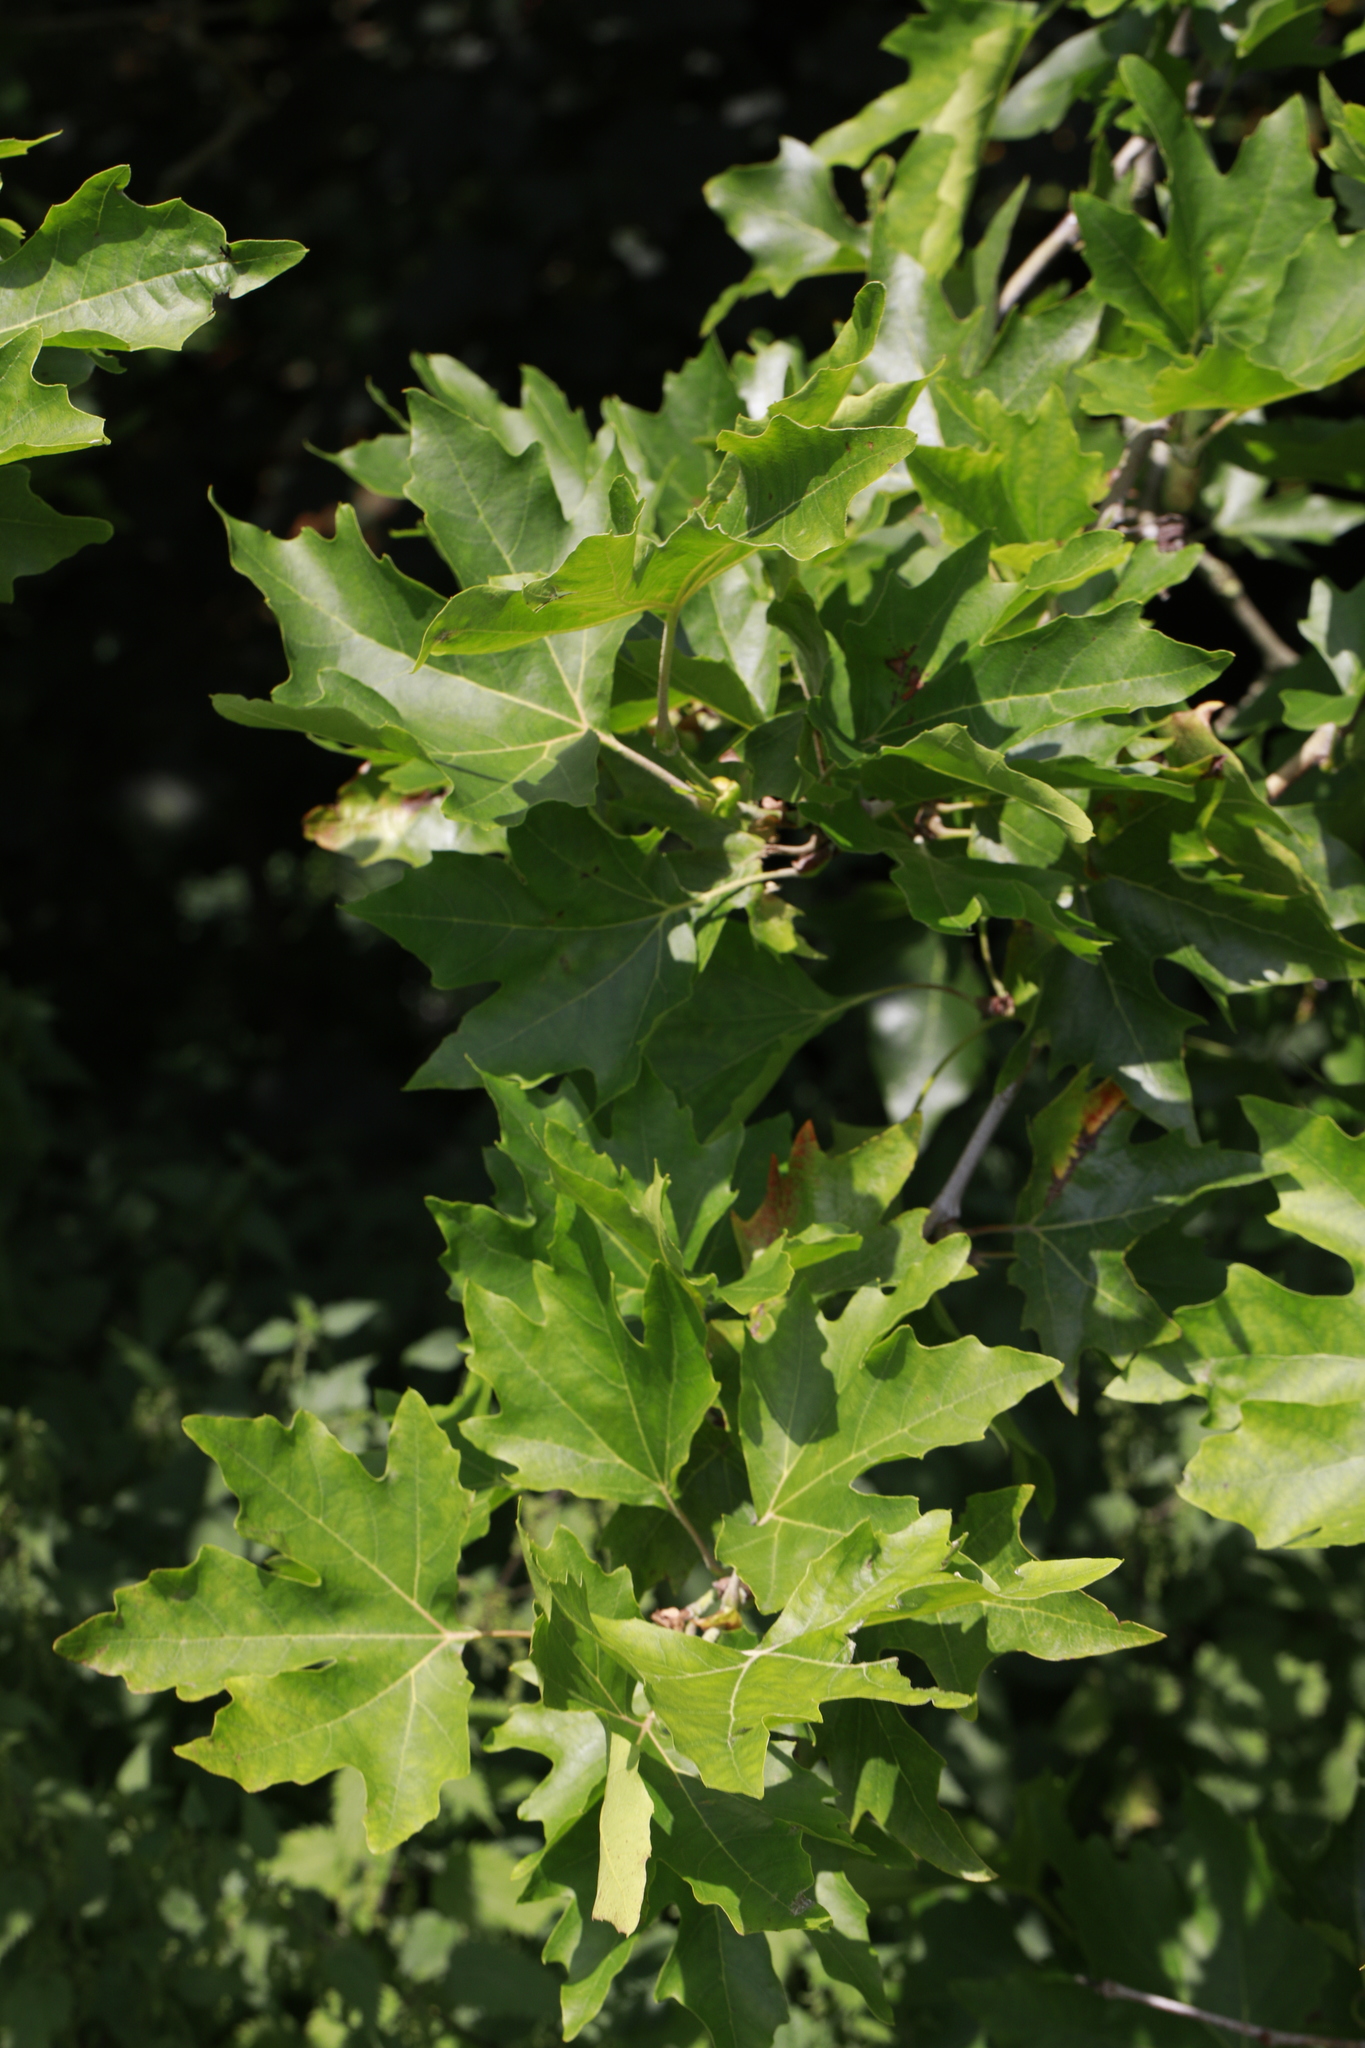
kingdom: Plantae
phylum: Tracheophyta
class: Magnoliopsida
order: Proteales
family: Platanaceae
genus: Platanus
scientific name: Platanus hispanica
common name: London plane
